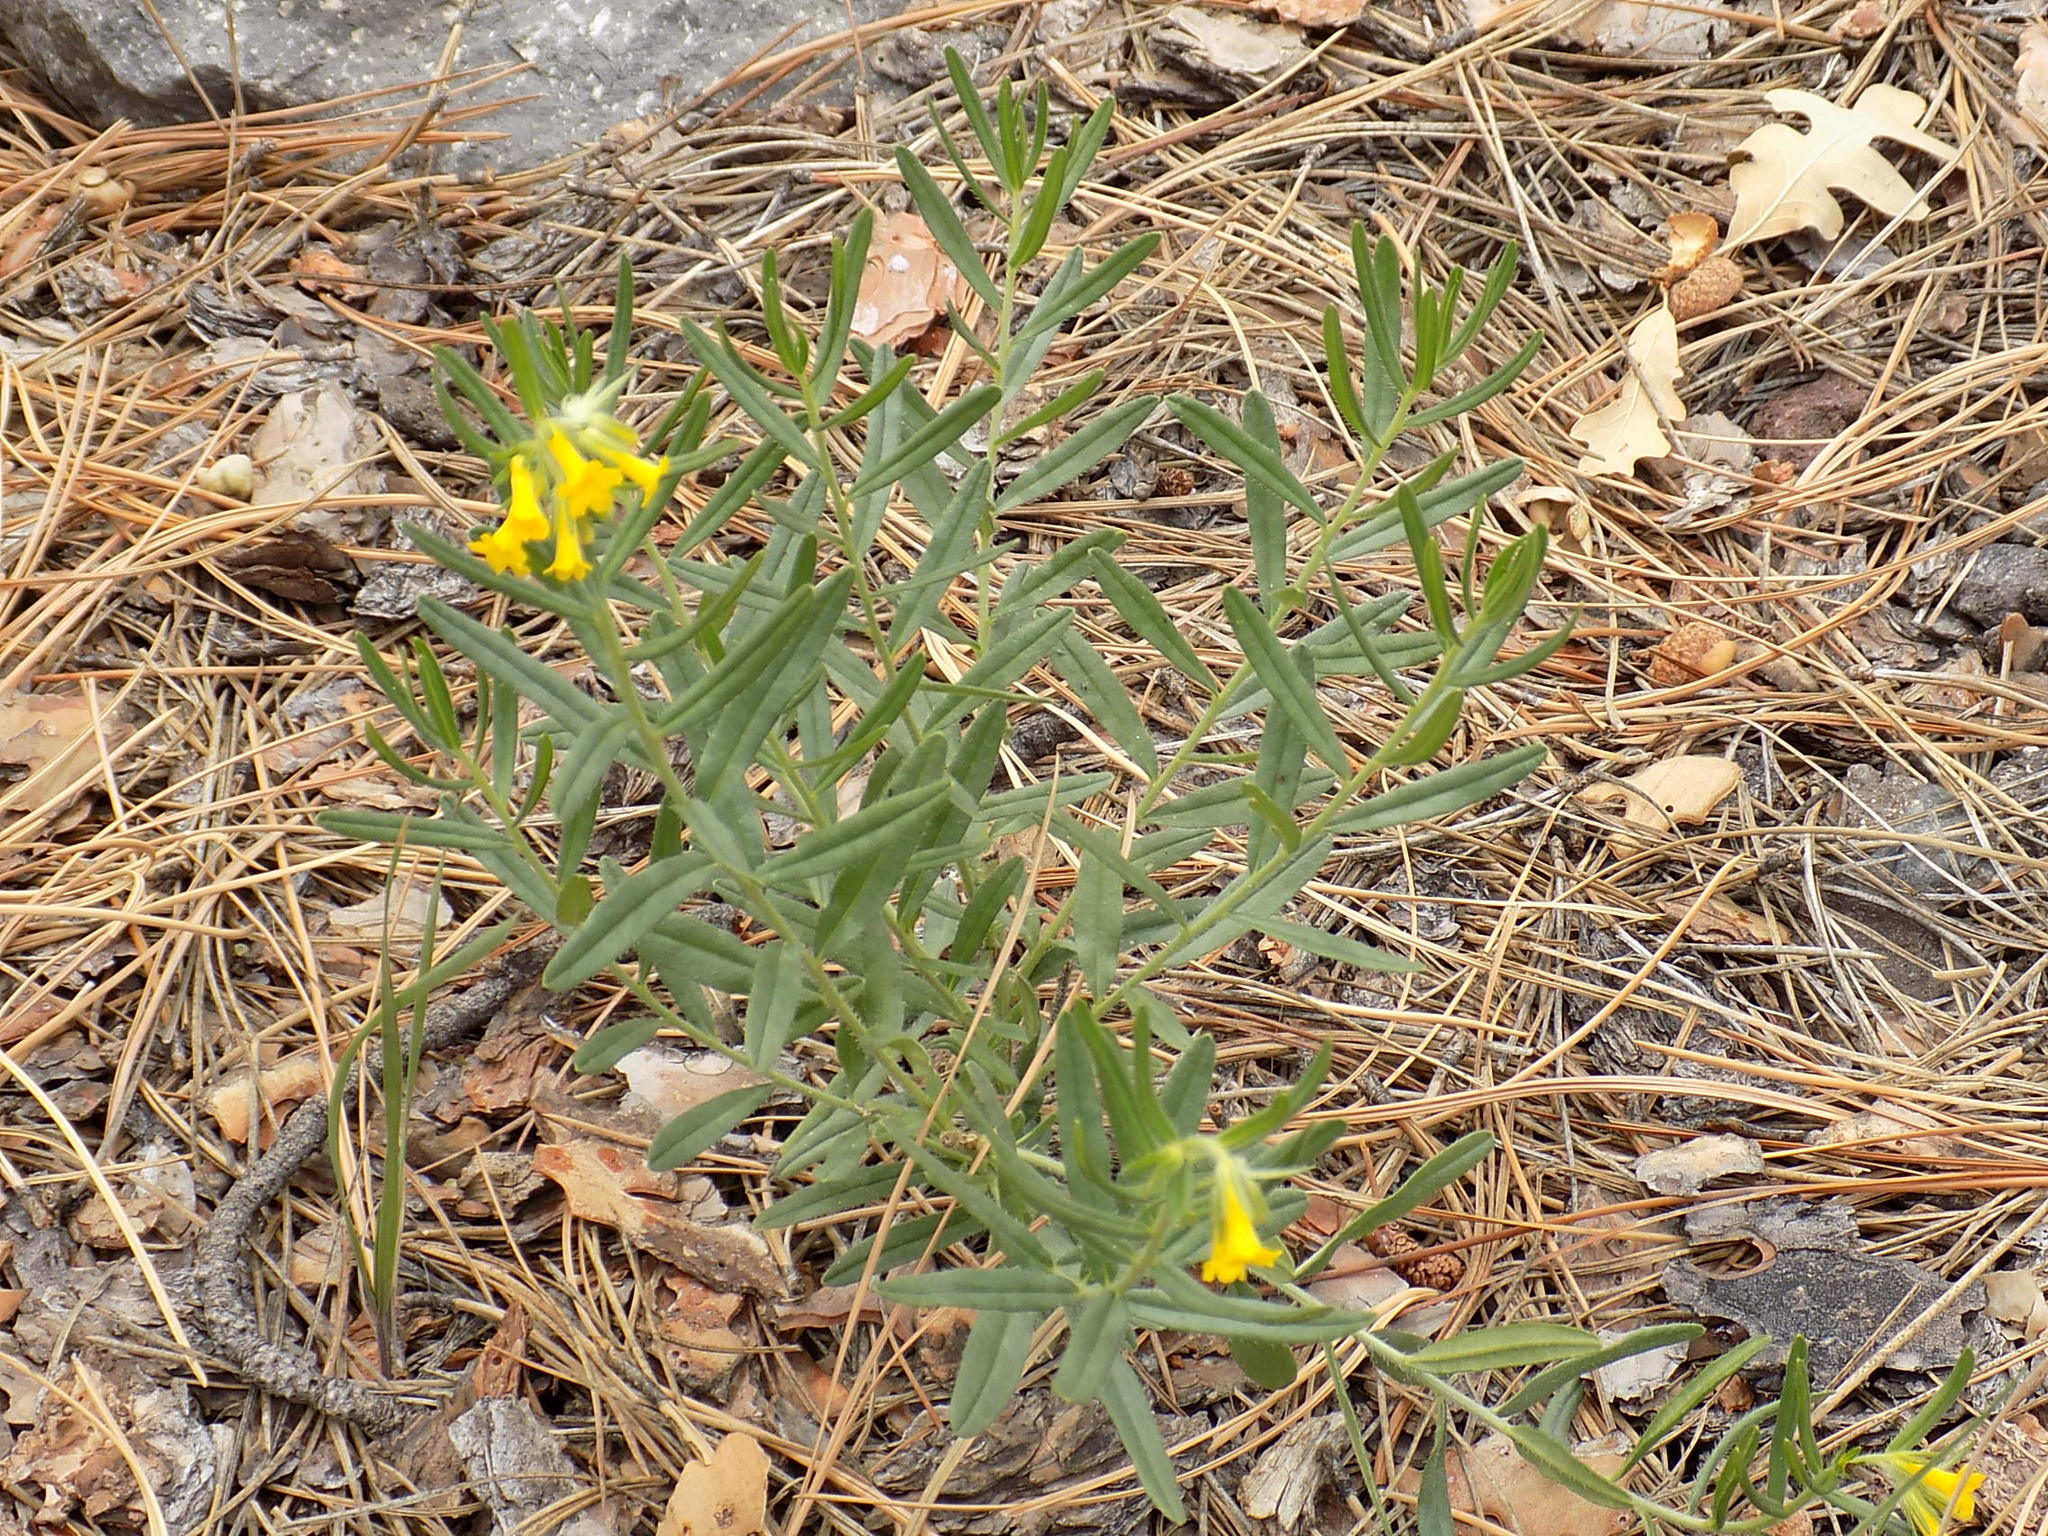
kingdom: Plantae
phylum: Tracheophyta
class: Magnoliopsida
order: Boraginales
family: Boraginaceae
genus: Lithospermum
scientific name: Lithospermum multiflorum
